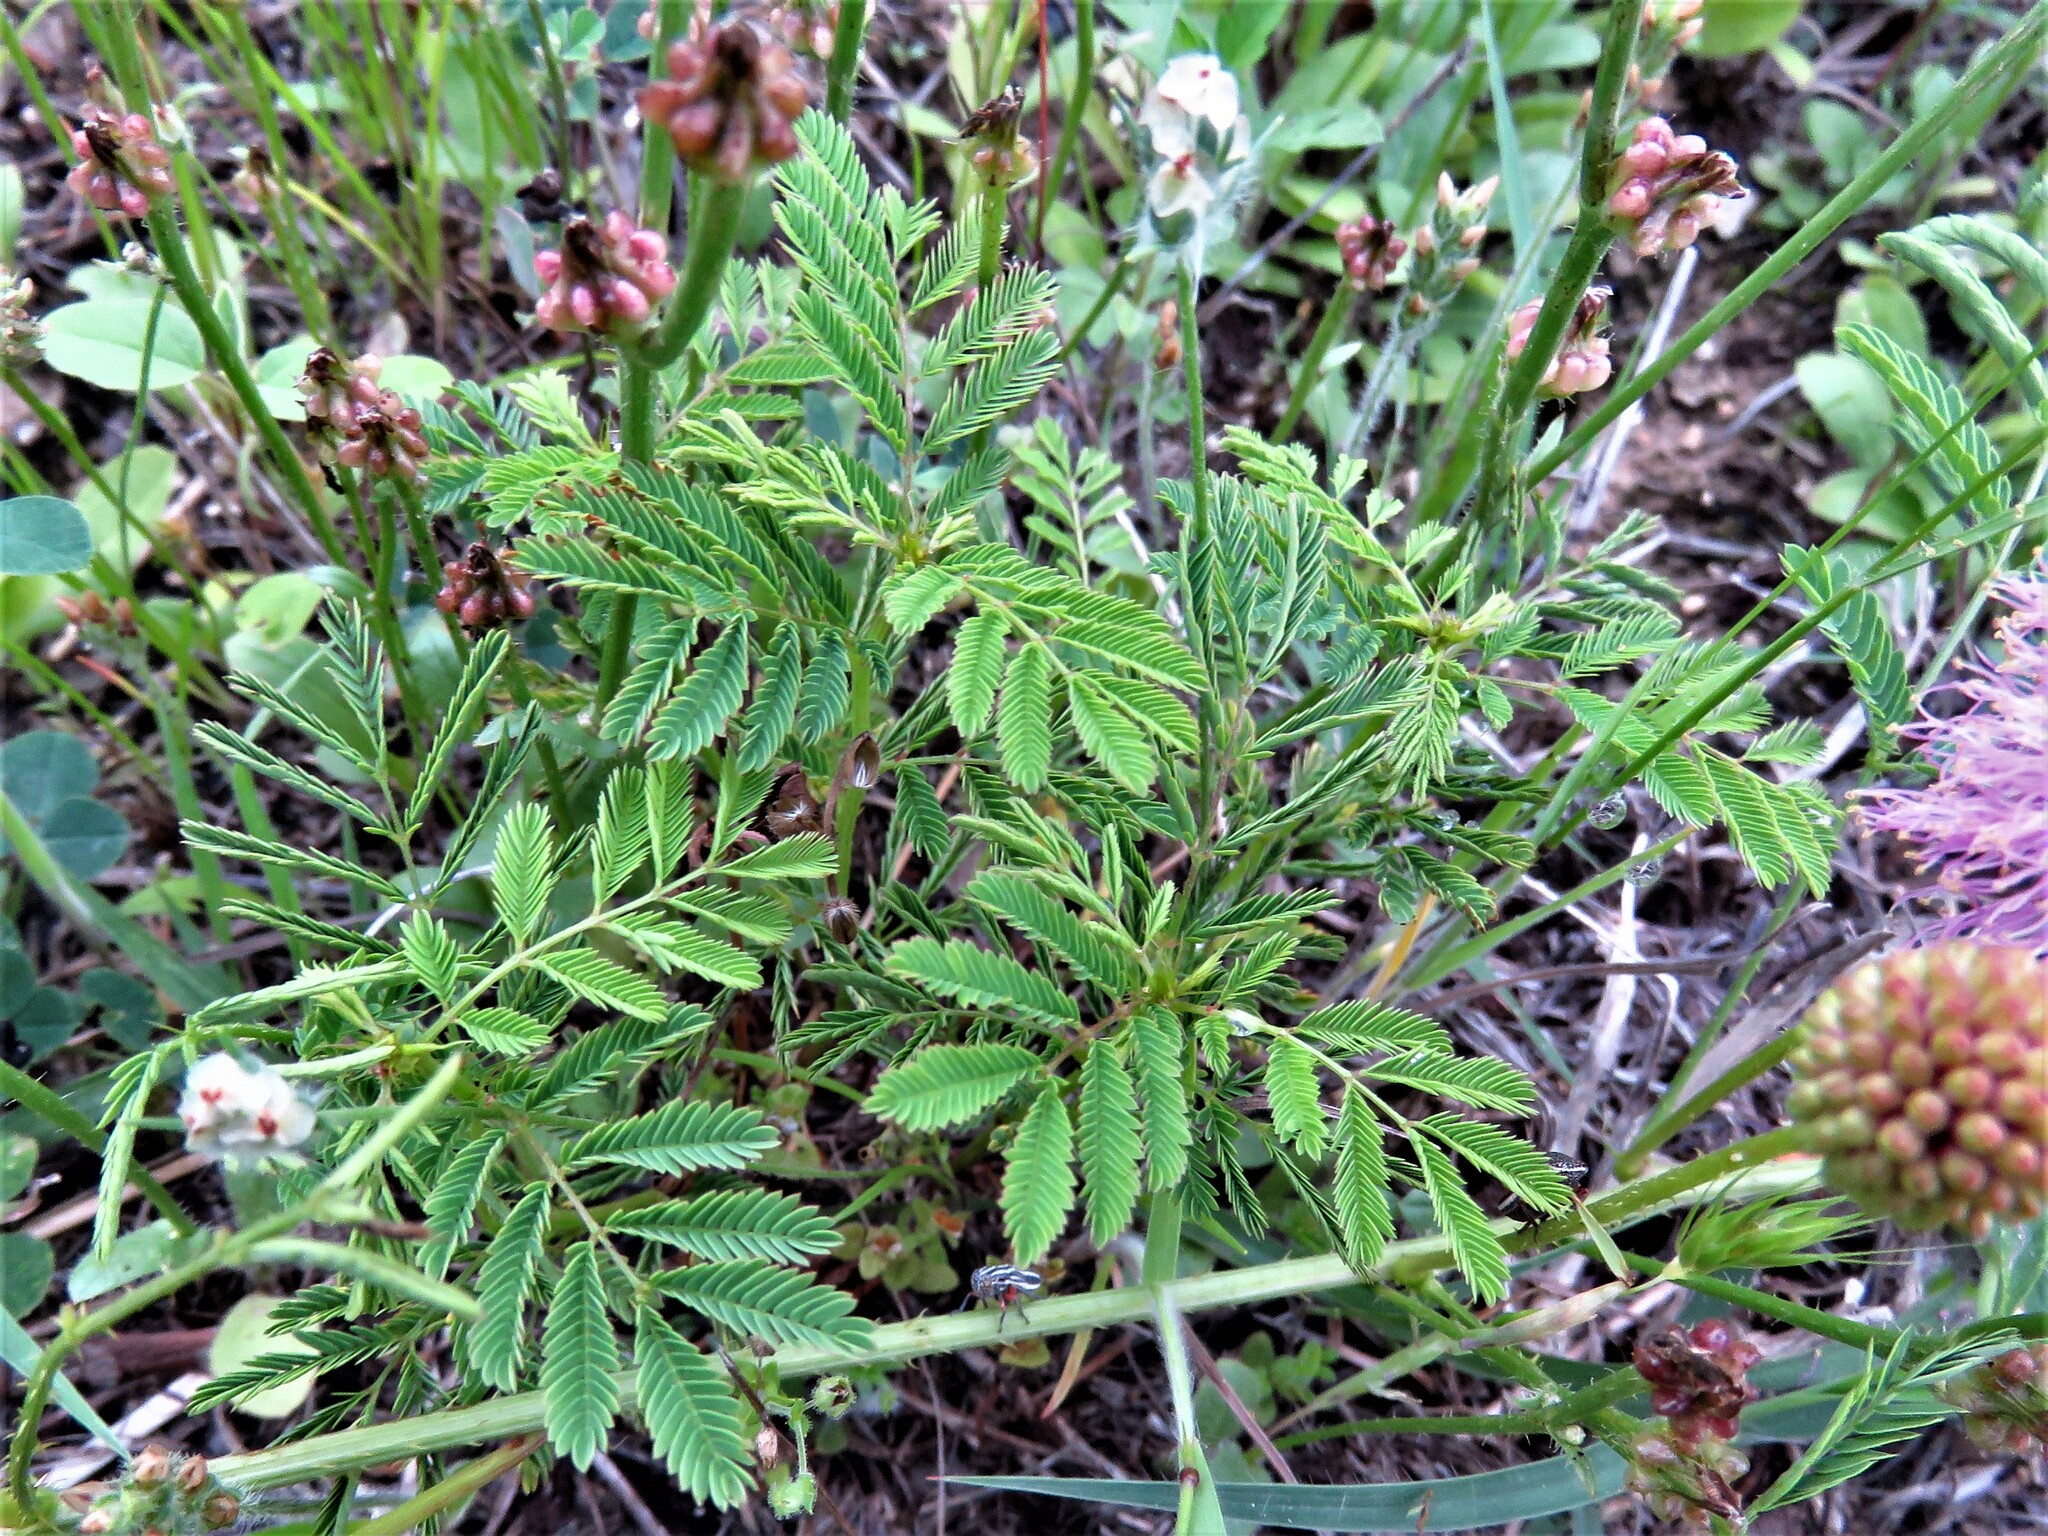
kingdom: Plantae
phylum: Tracheophyta
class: Magnoliopsida
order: Fabales
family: Fabaceae
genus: Mimosa
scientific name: Mimosa quadrivalvis
